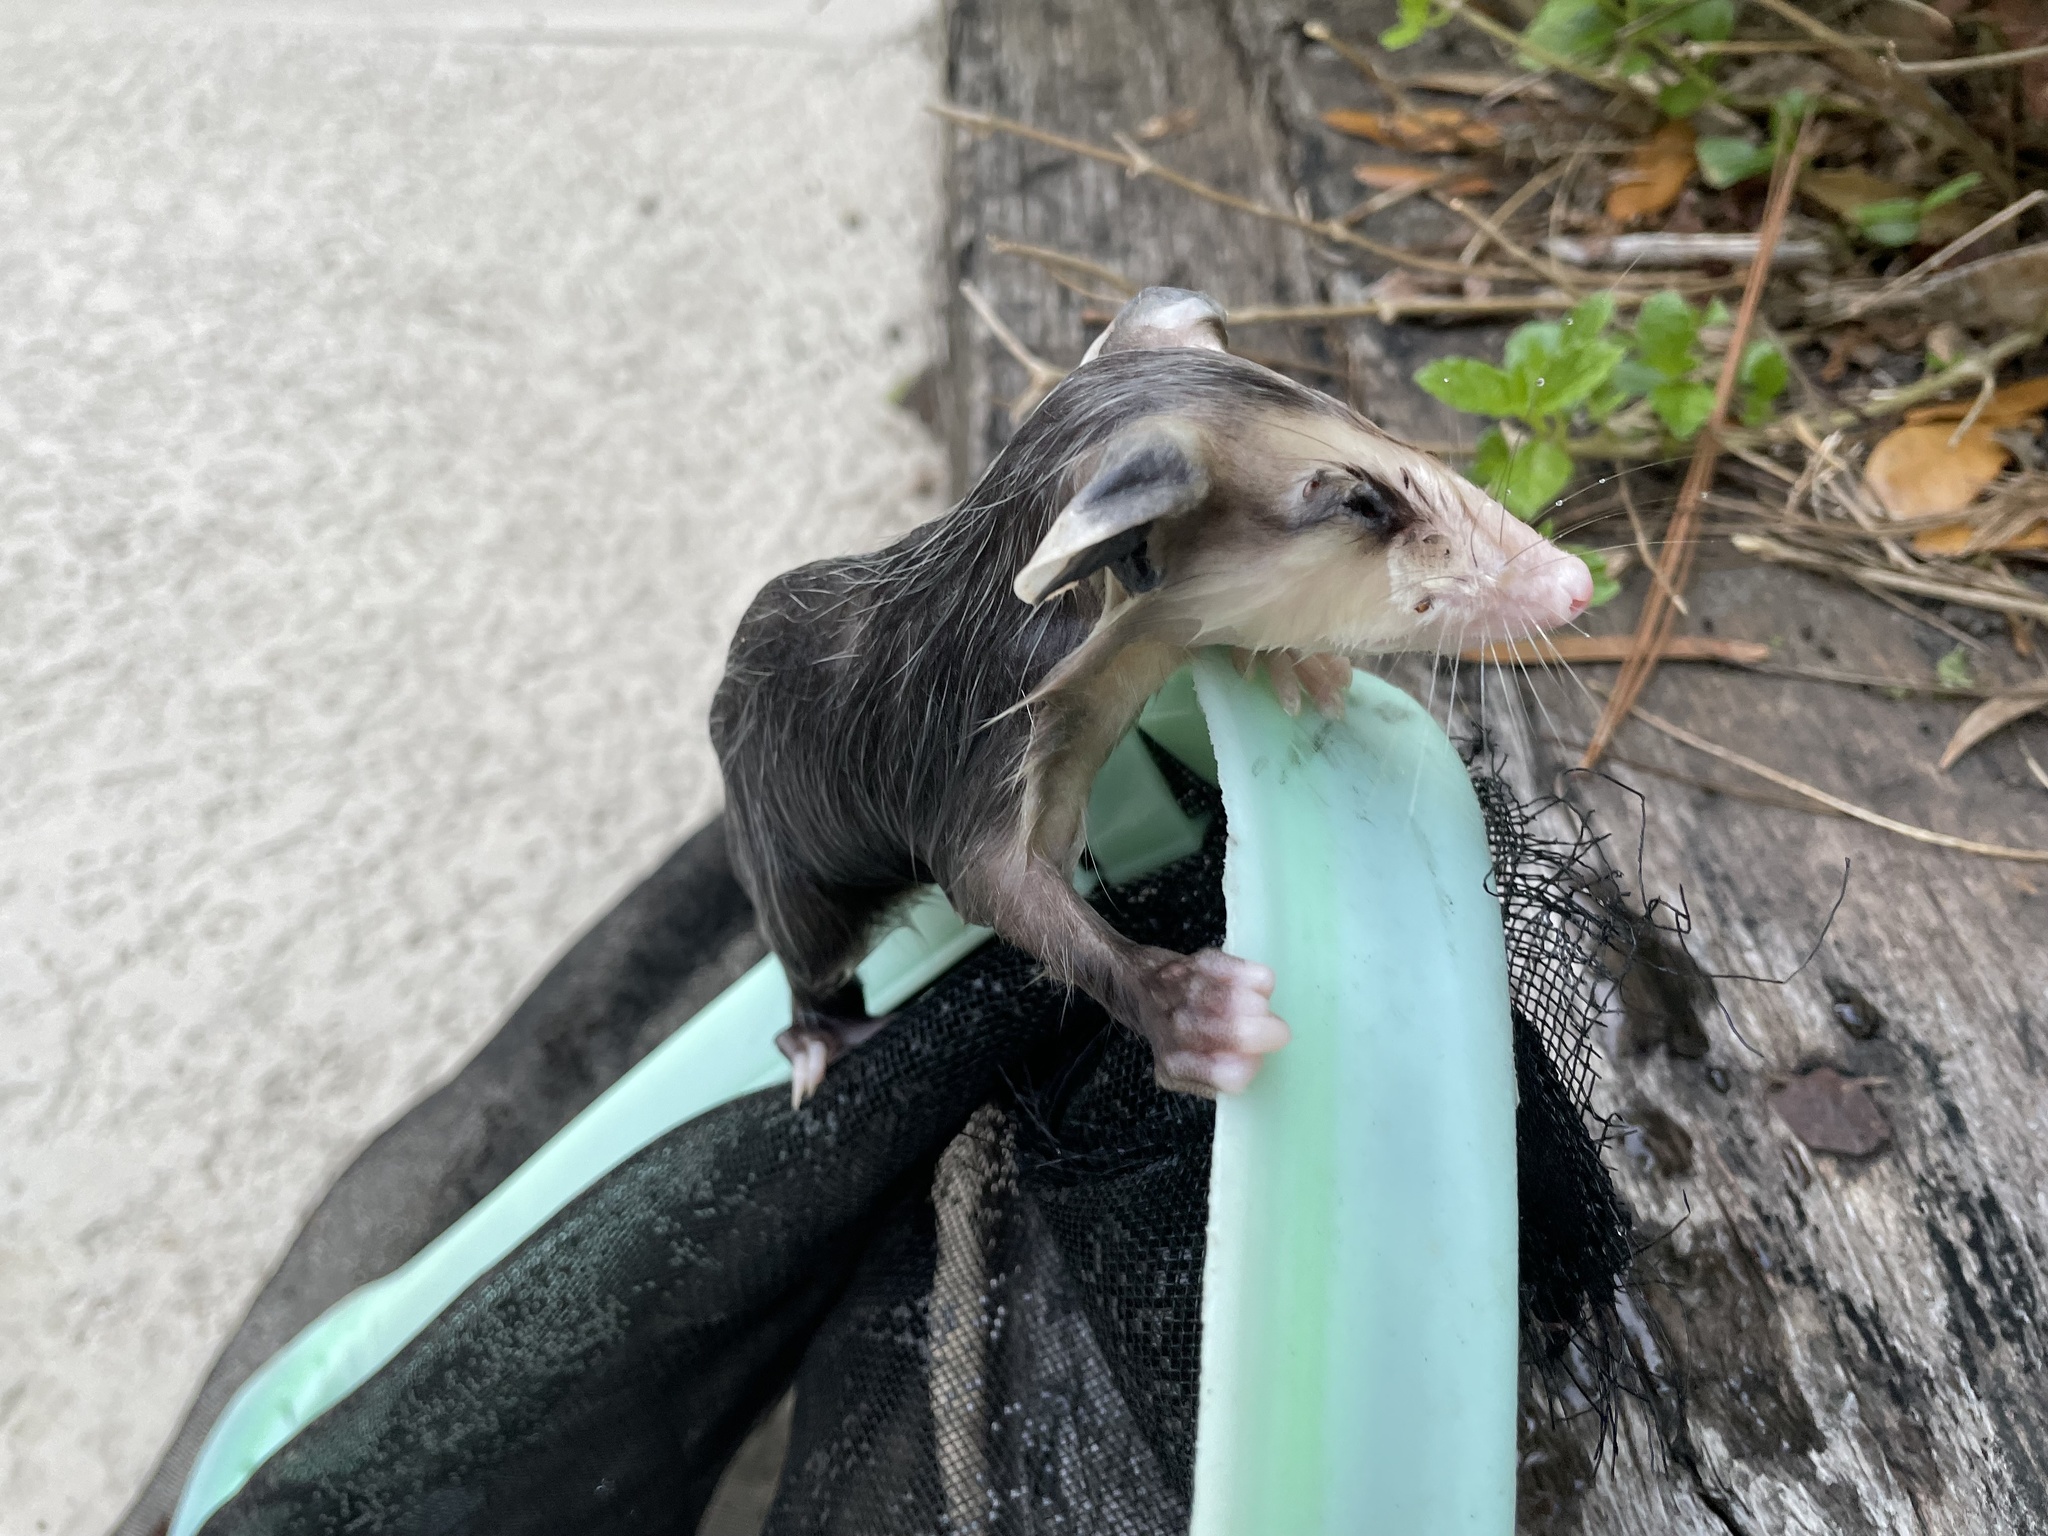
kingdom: Animalia
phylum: Chordata
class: Mammalia
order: Didelphimorphia
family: Didelphidae
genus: Didelphis
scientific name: Didelphis virginiana
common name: Virginia opossum
